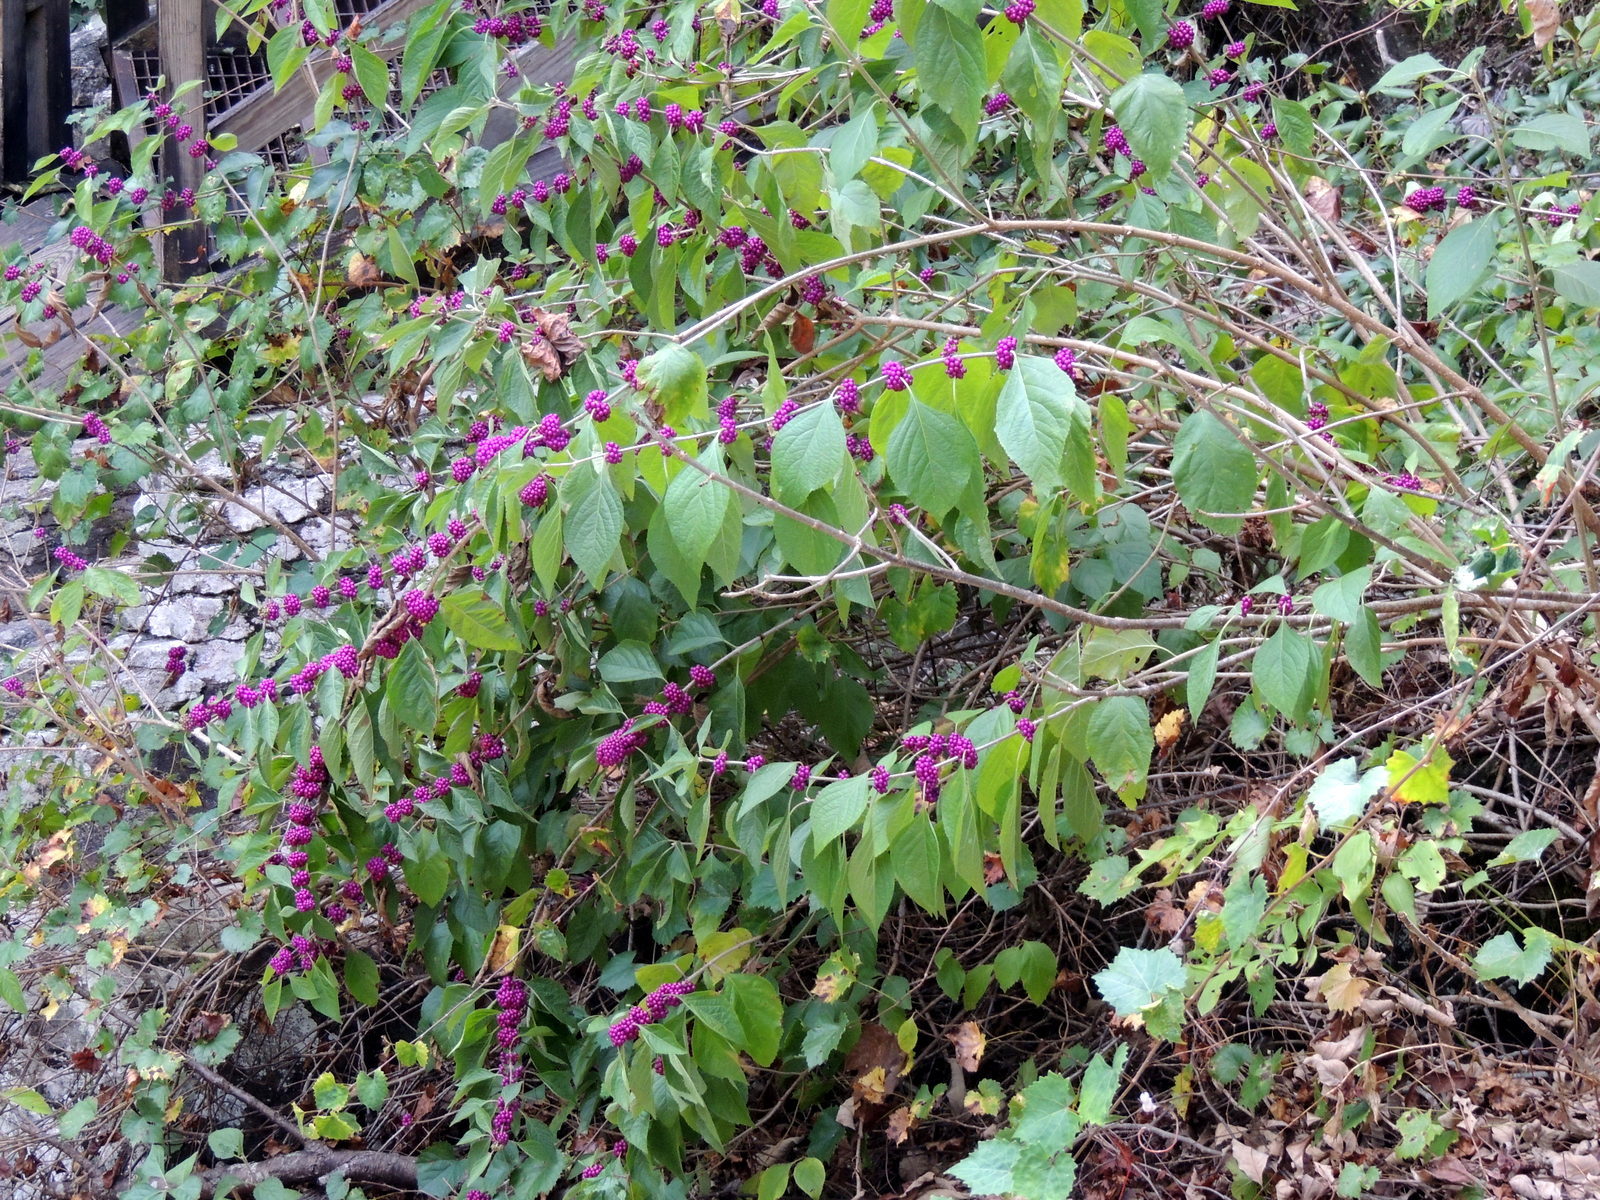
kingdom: Plantae
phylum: Tracheophyta
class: Magnoliopsida
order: Lamiales
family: Lamiaceae
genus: Callicarpa
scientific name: Callicarpa americana
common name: American beautyberry
